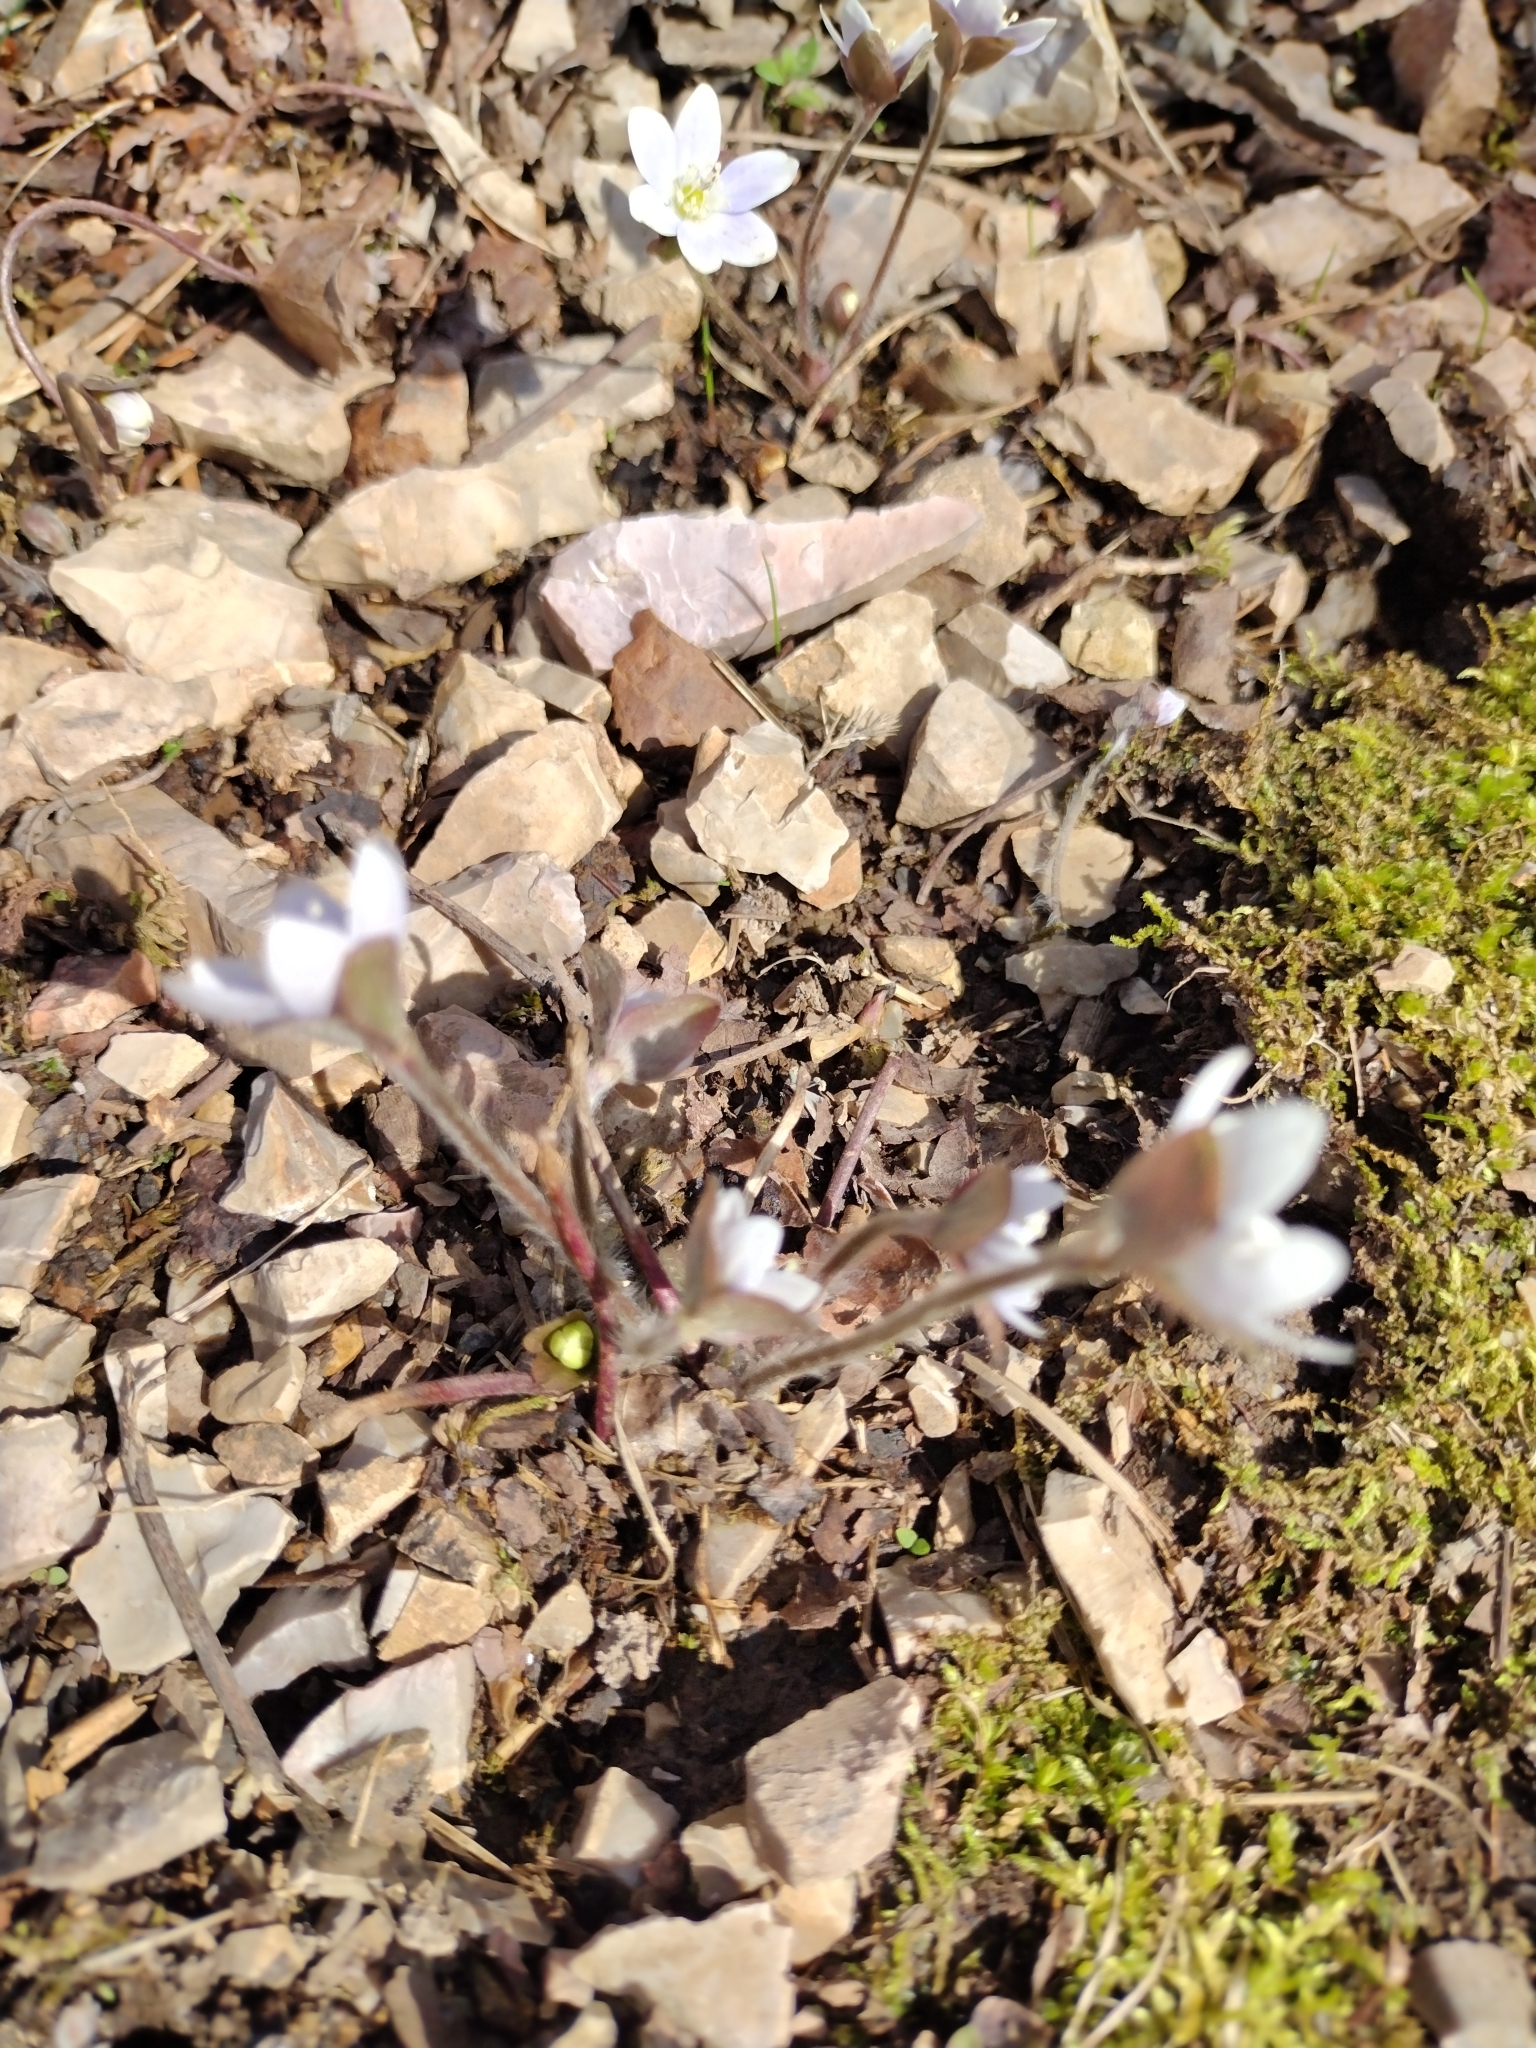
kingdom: Plantae
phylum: Tracheophyta
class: Magnoliopsida
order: Ranunculales
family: Ranunculaceae
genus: Hepatica
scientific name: Hepatica americana
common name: American hepatica
